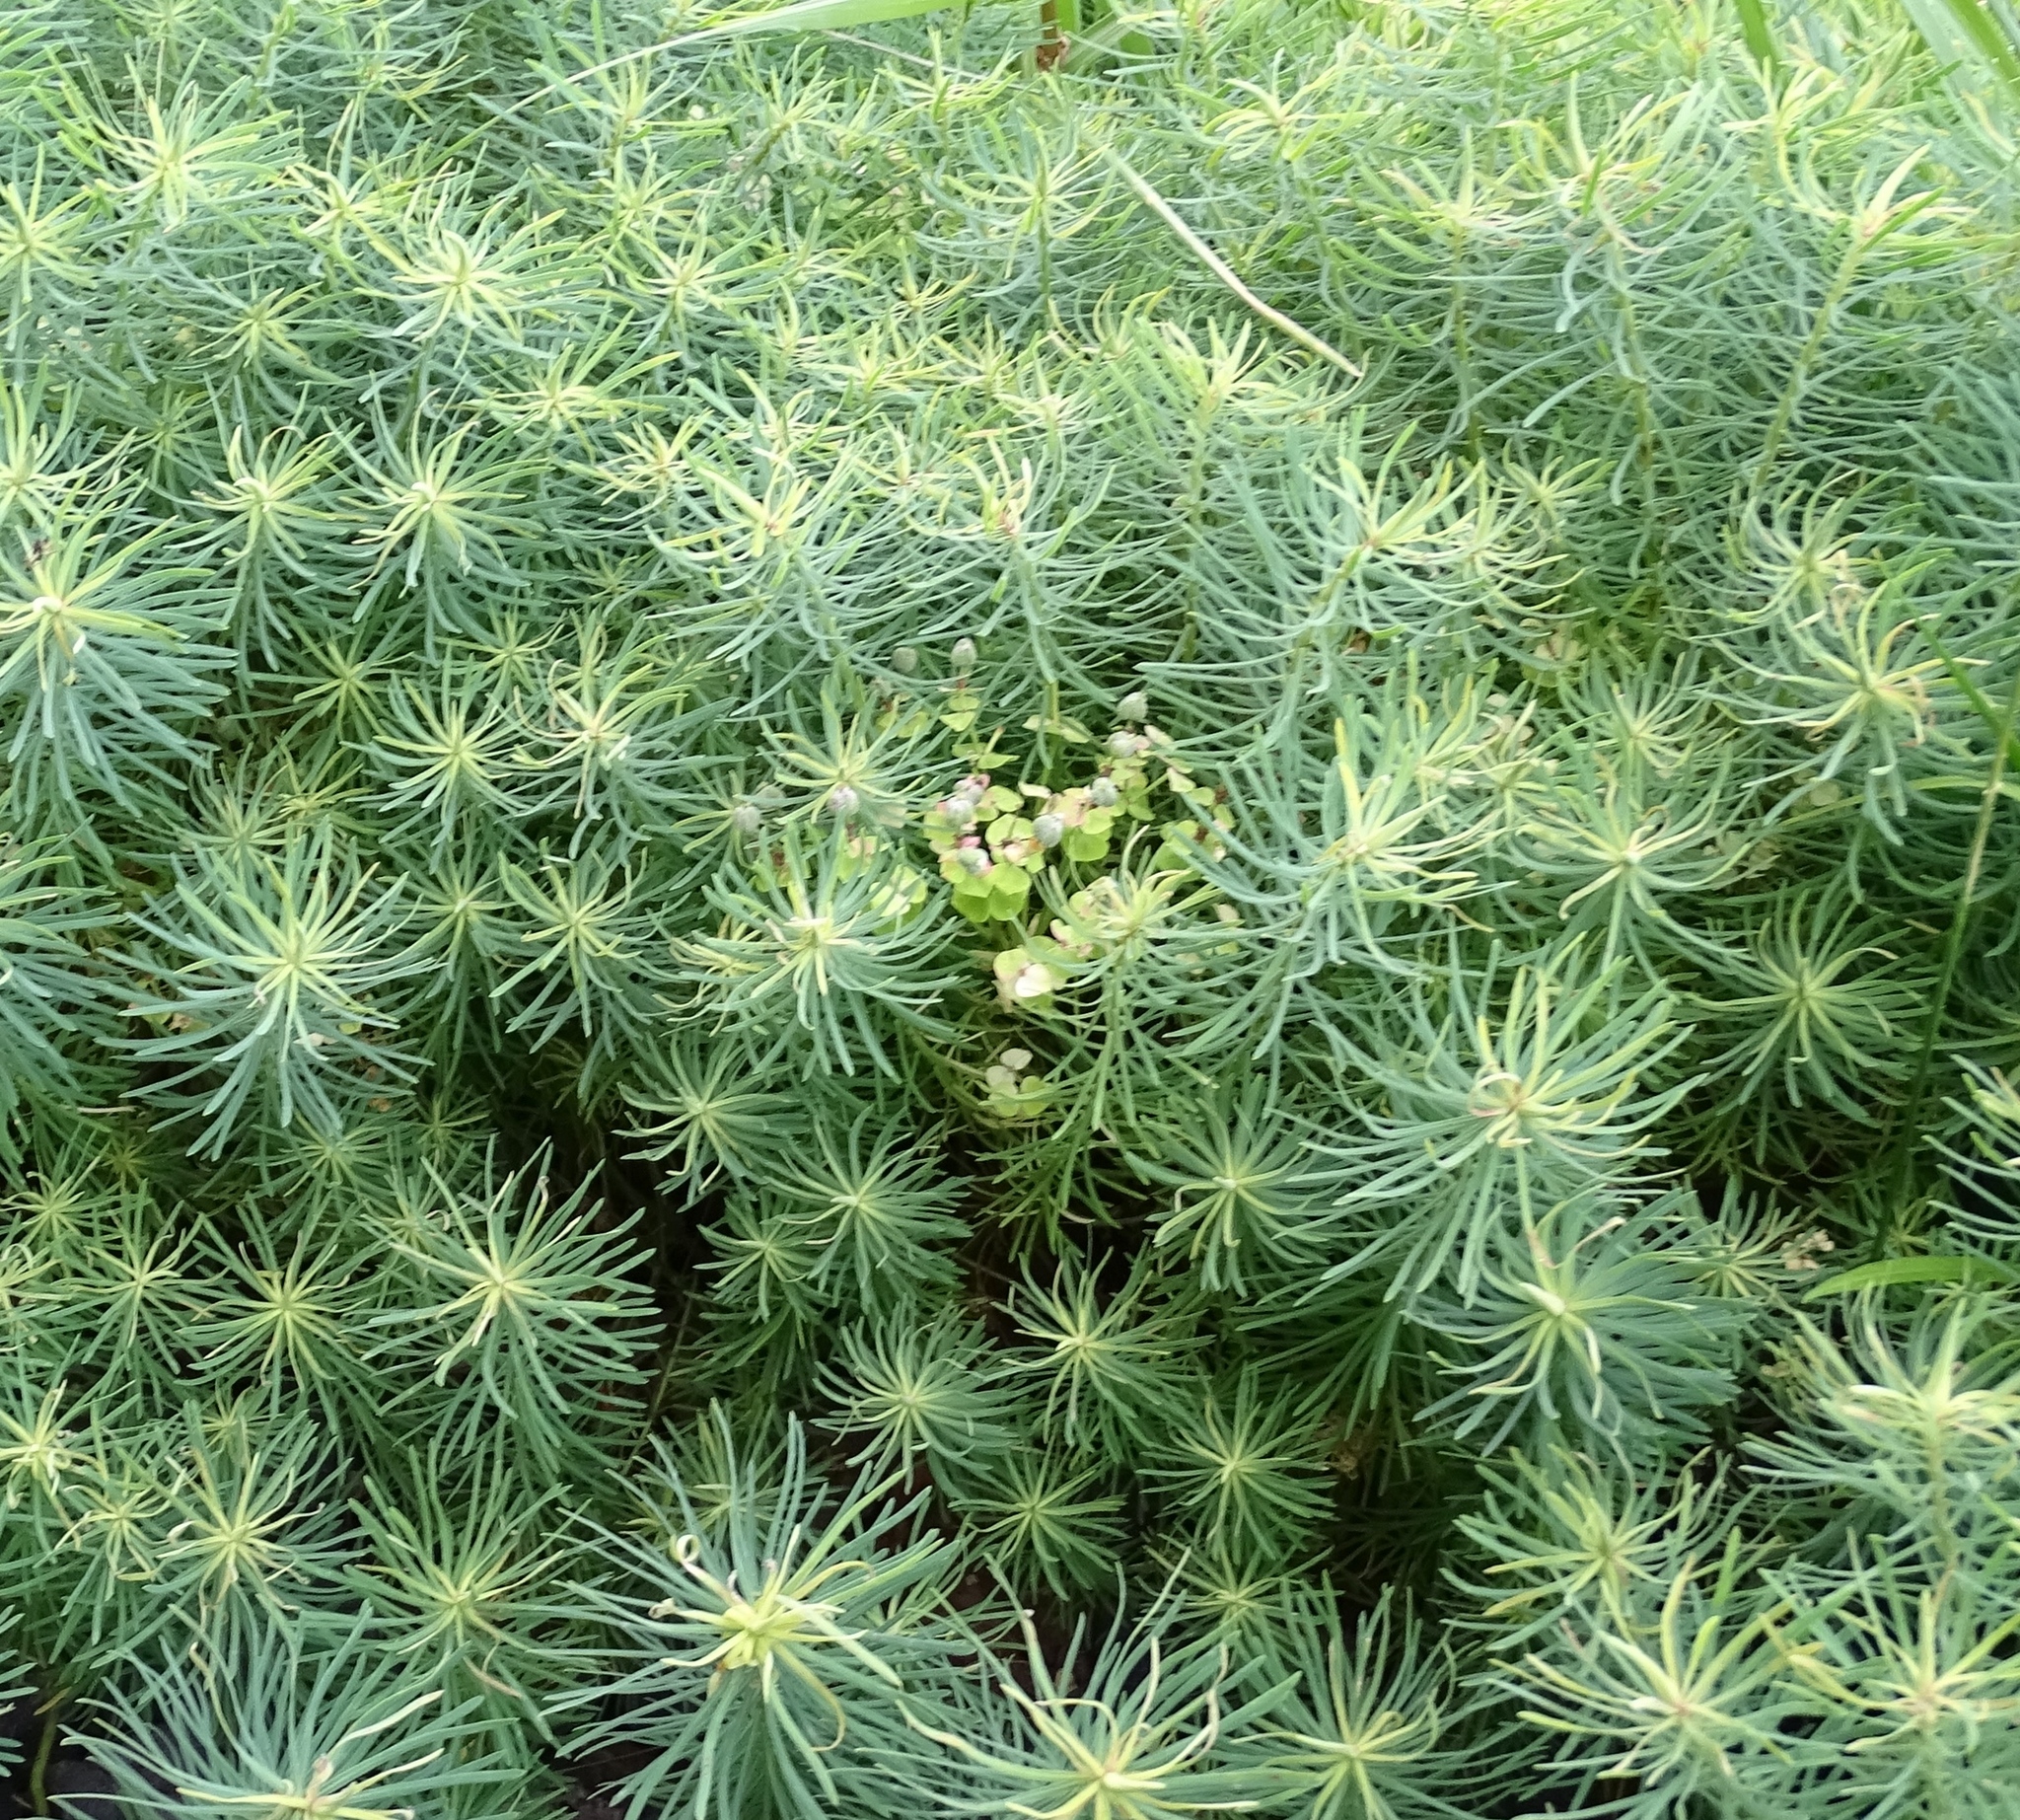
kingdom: Plantae
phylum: Tracheophyta
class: Magnoliopsida
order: Malpighiales
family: Euphorbiaceae
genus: Euphorbia
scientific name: Euphorbia cyparissias
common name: Cypress spurge
